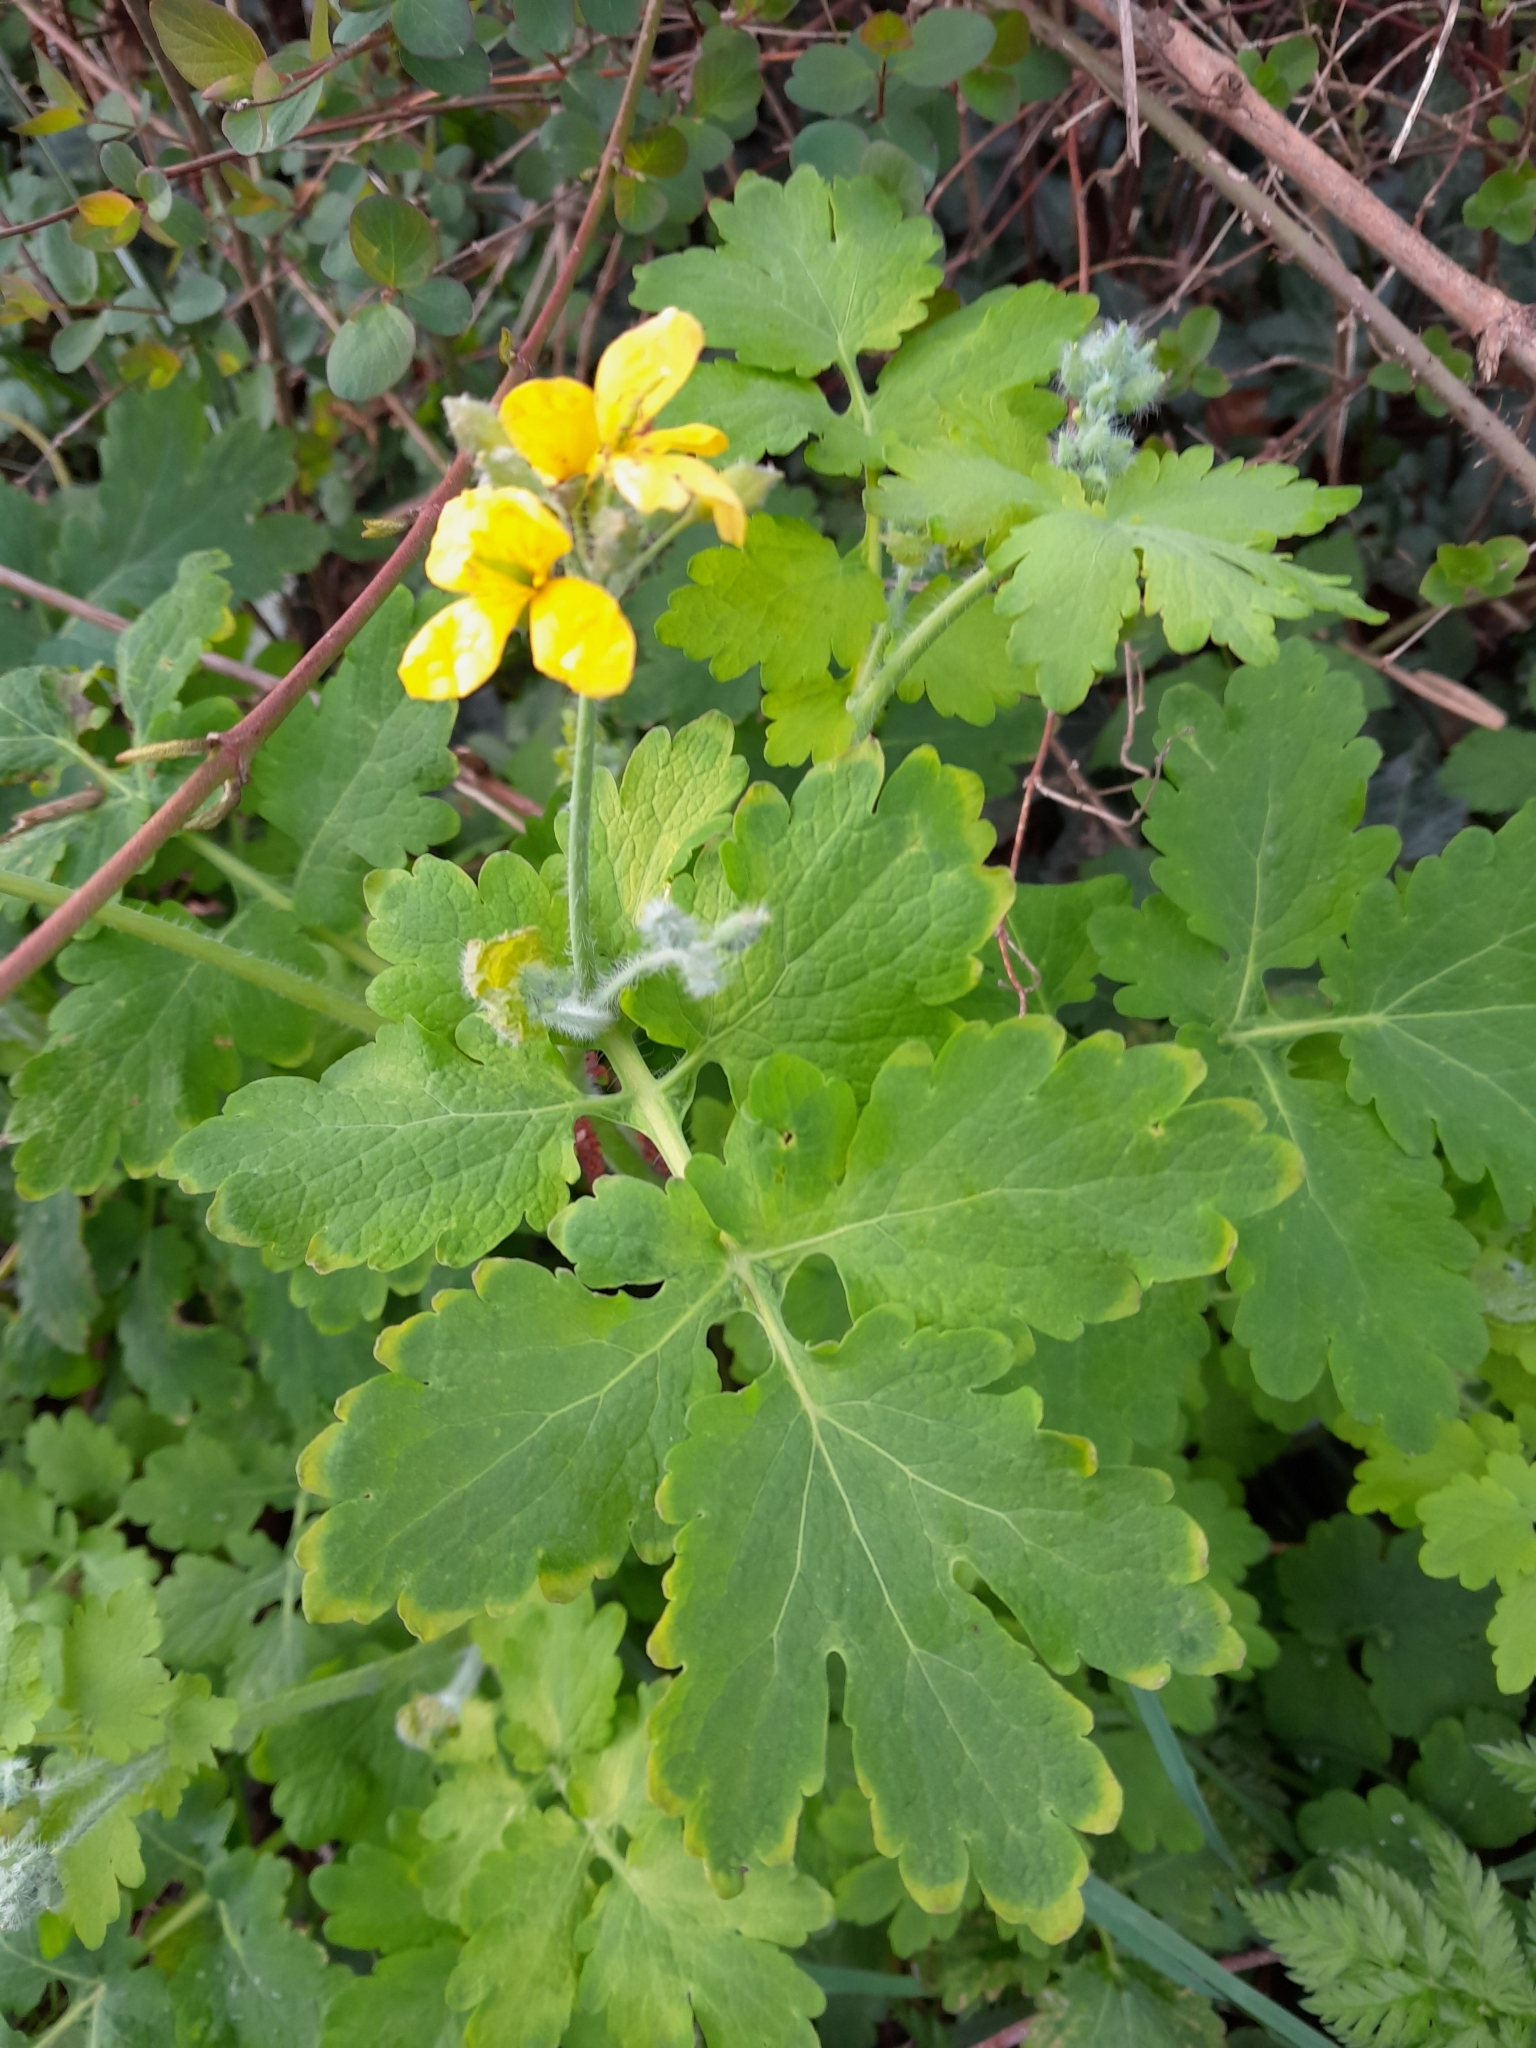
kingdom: Plantae
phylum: Tracheophyta
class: Magnoliopsida
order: Ranunculales
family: Papaveraceae
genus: Chelidonium
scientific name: Chelidonium majus
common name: Greater celandine
